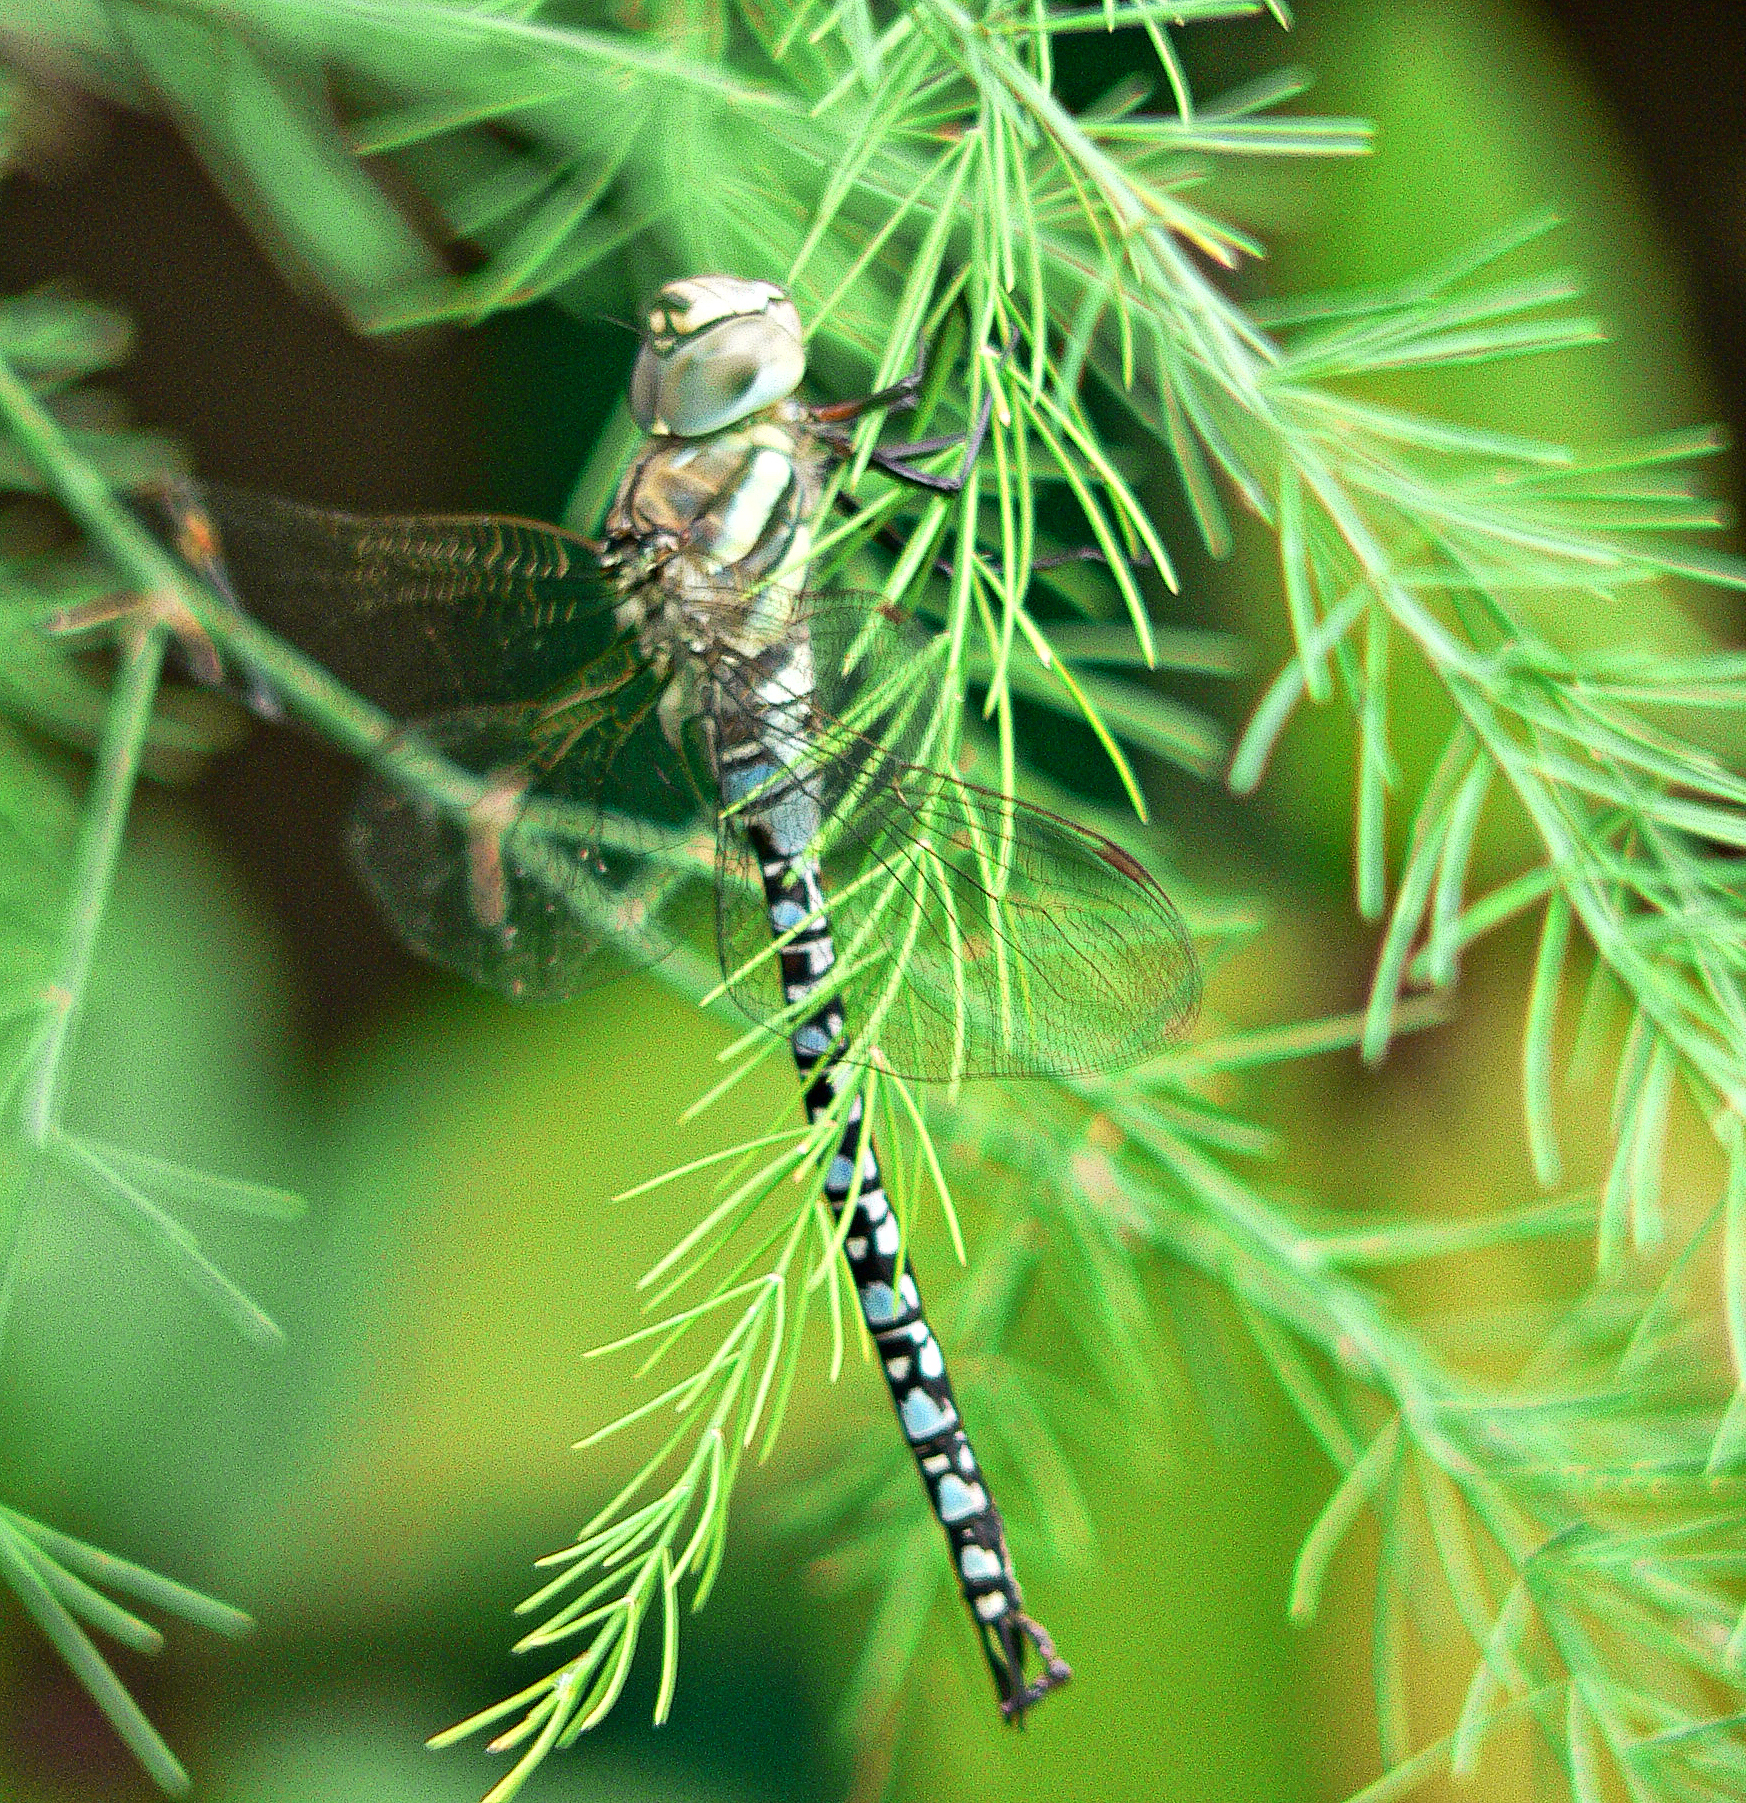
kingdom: Animalia
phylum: Arthropoda
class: Insecta
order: Odonata
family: Aeshnidae
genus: Aeshna
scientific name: Aeshna soneharai
